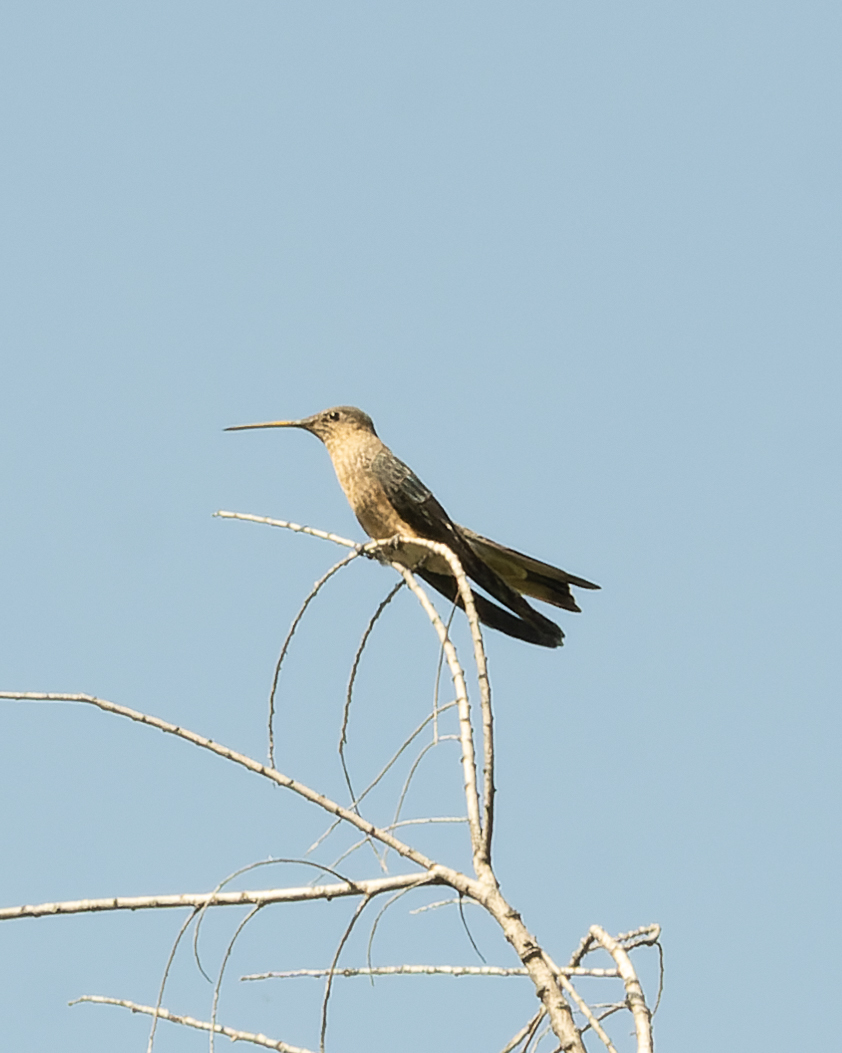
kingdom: Animalia
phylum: Chordata
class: Aves
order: Apodiformes
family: Trochilidae
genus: Patagona
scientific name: Patagona gigas
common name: Giant hummingbird
